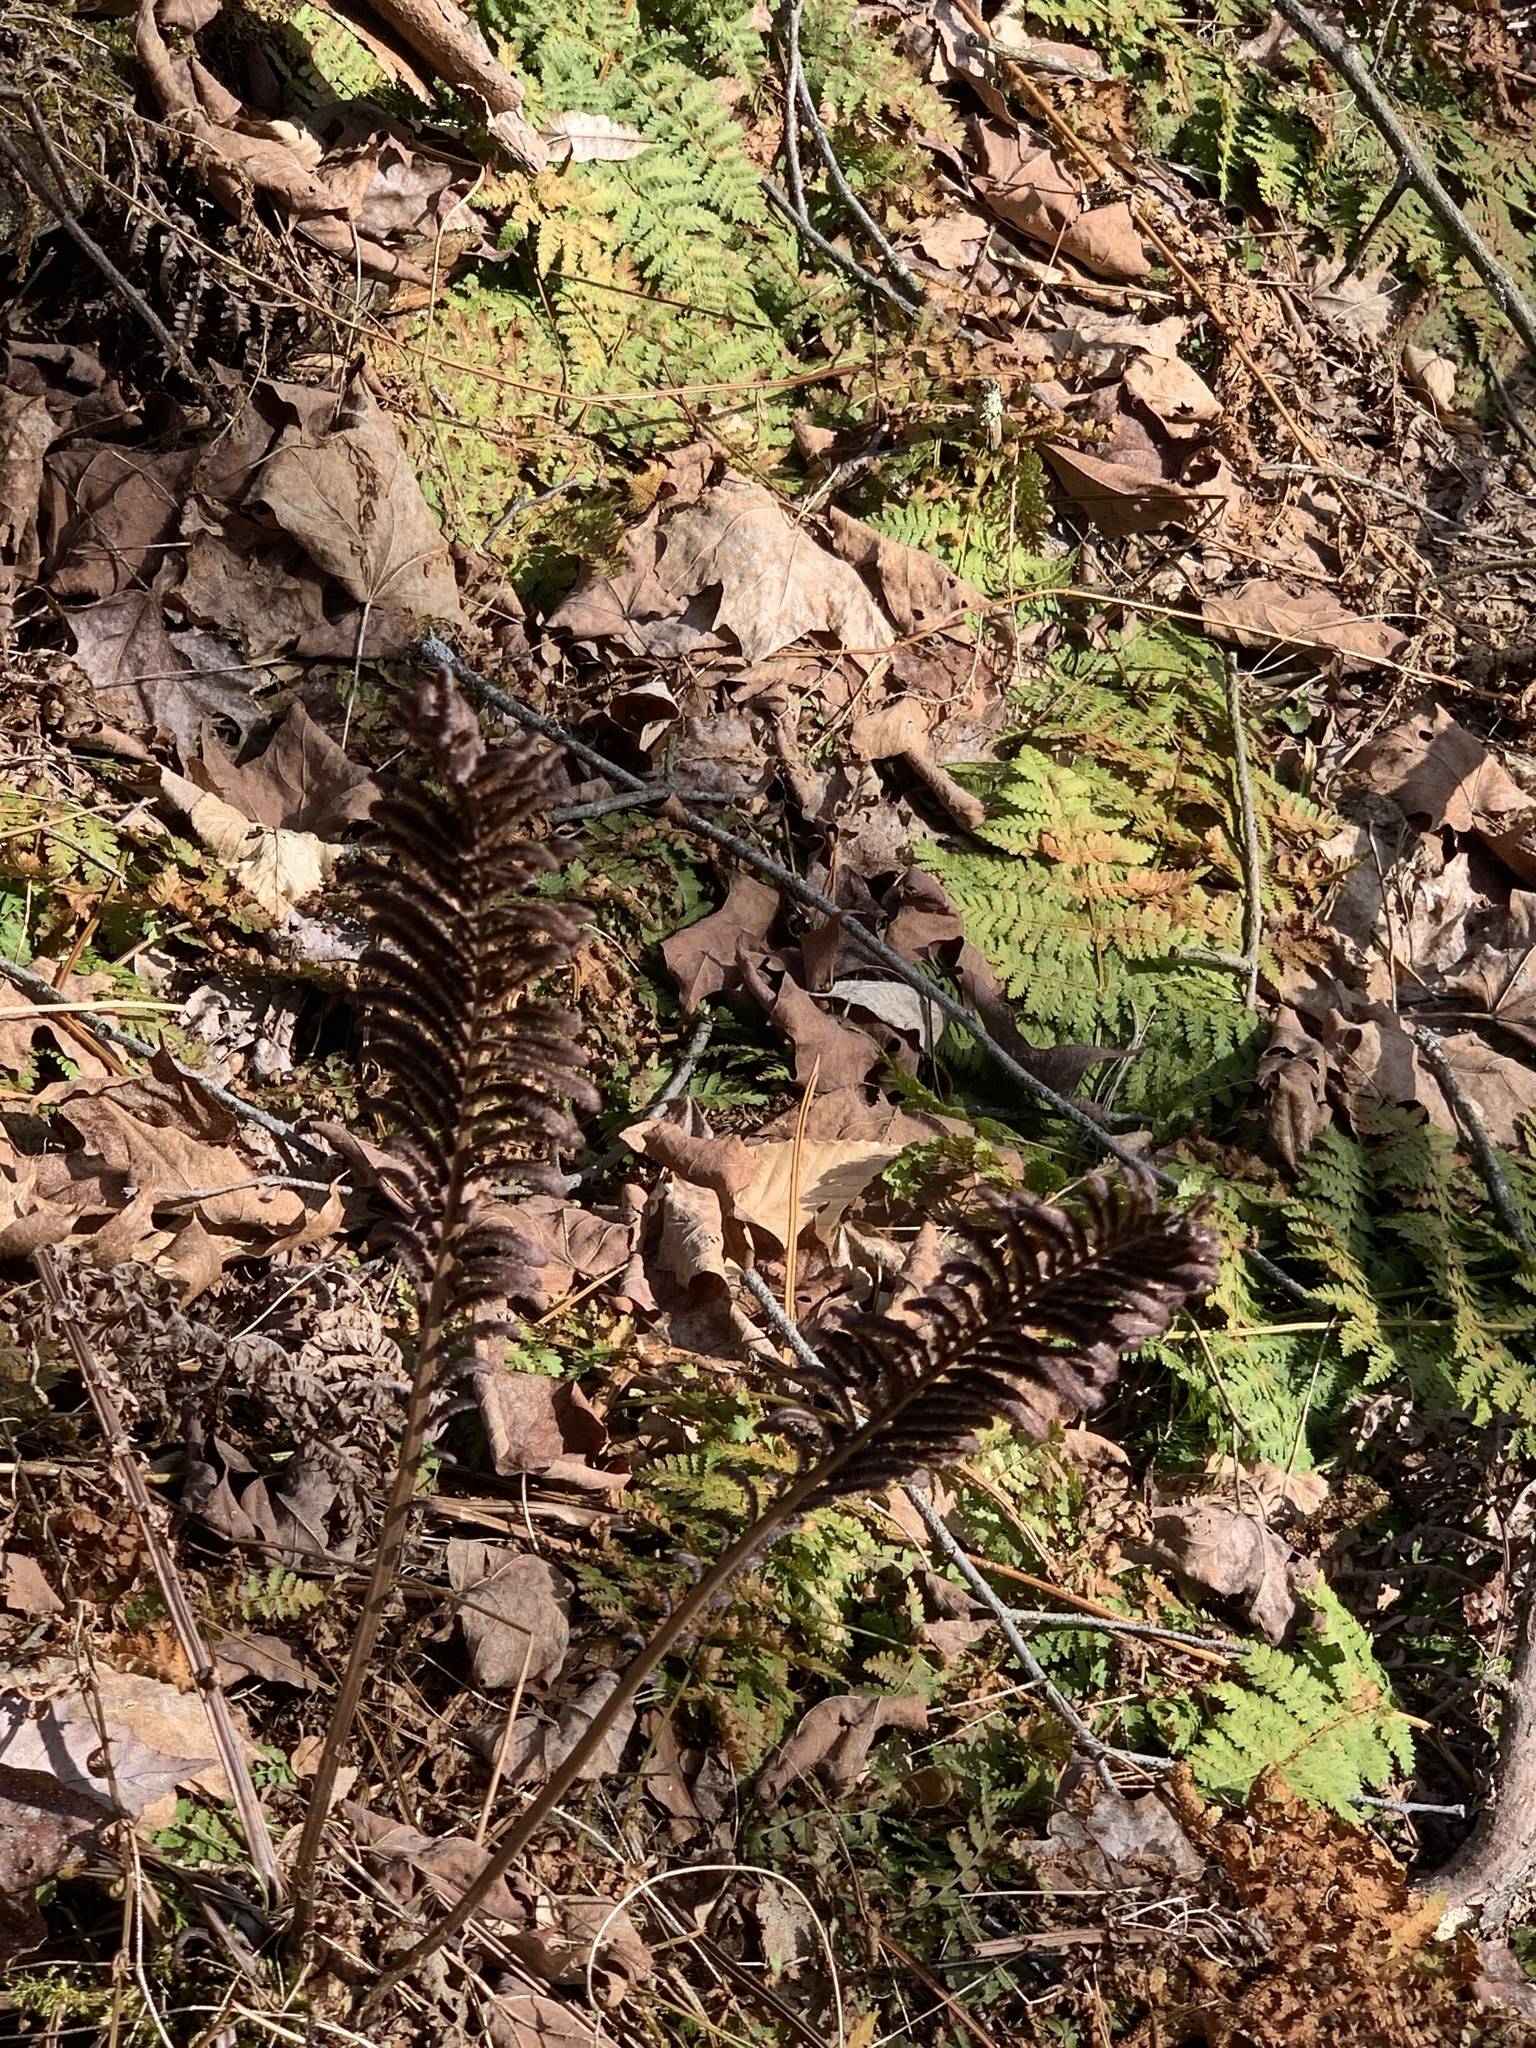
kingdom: Plantae
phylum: Tracheophyta
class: Polypodiopsida
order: Polypodiales
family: Onocleaceae
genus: Matteuccia
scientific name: Matteuccia struthiopteris
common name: Ostrich fern
